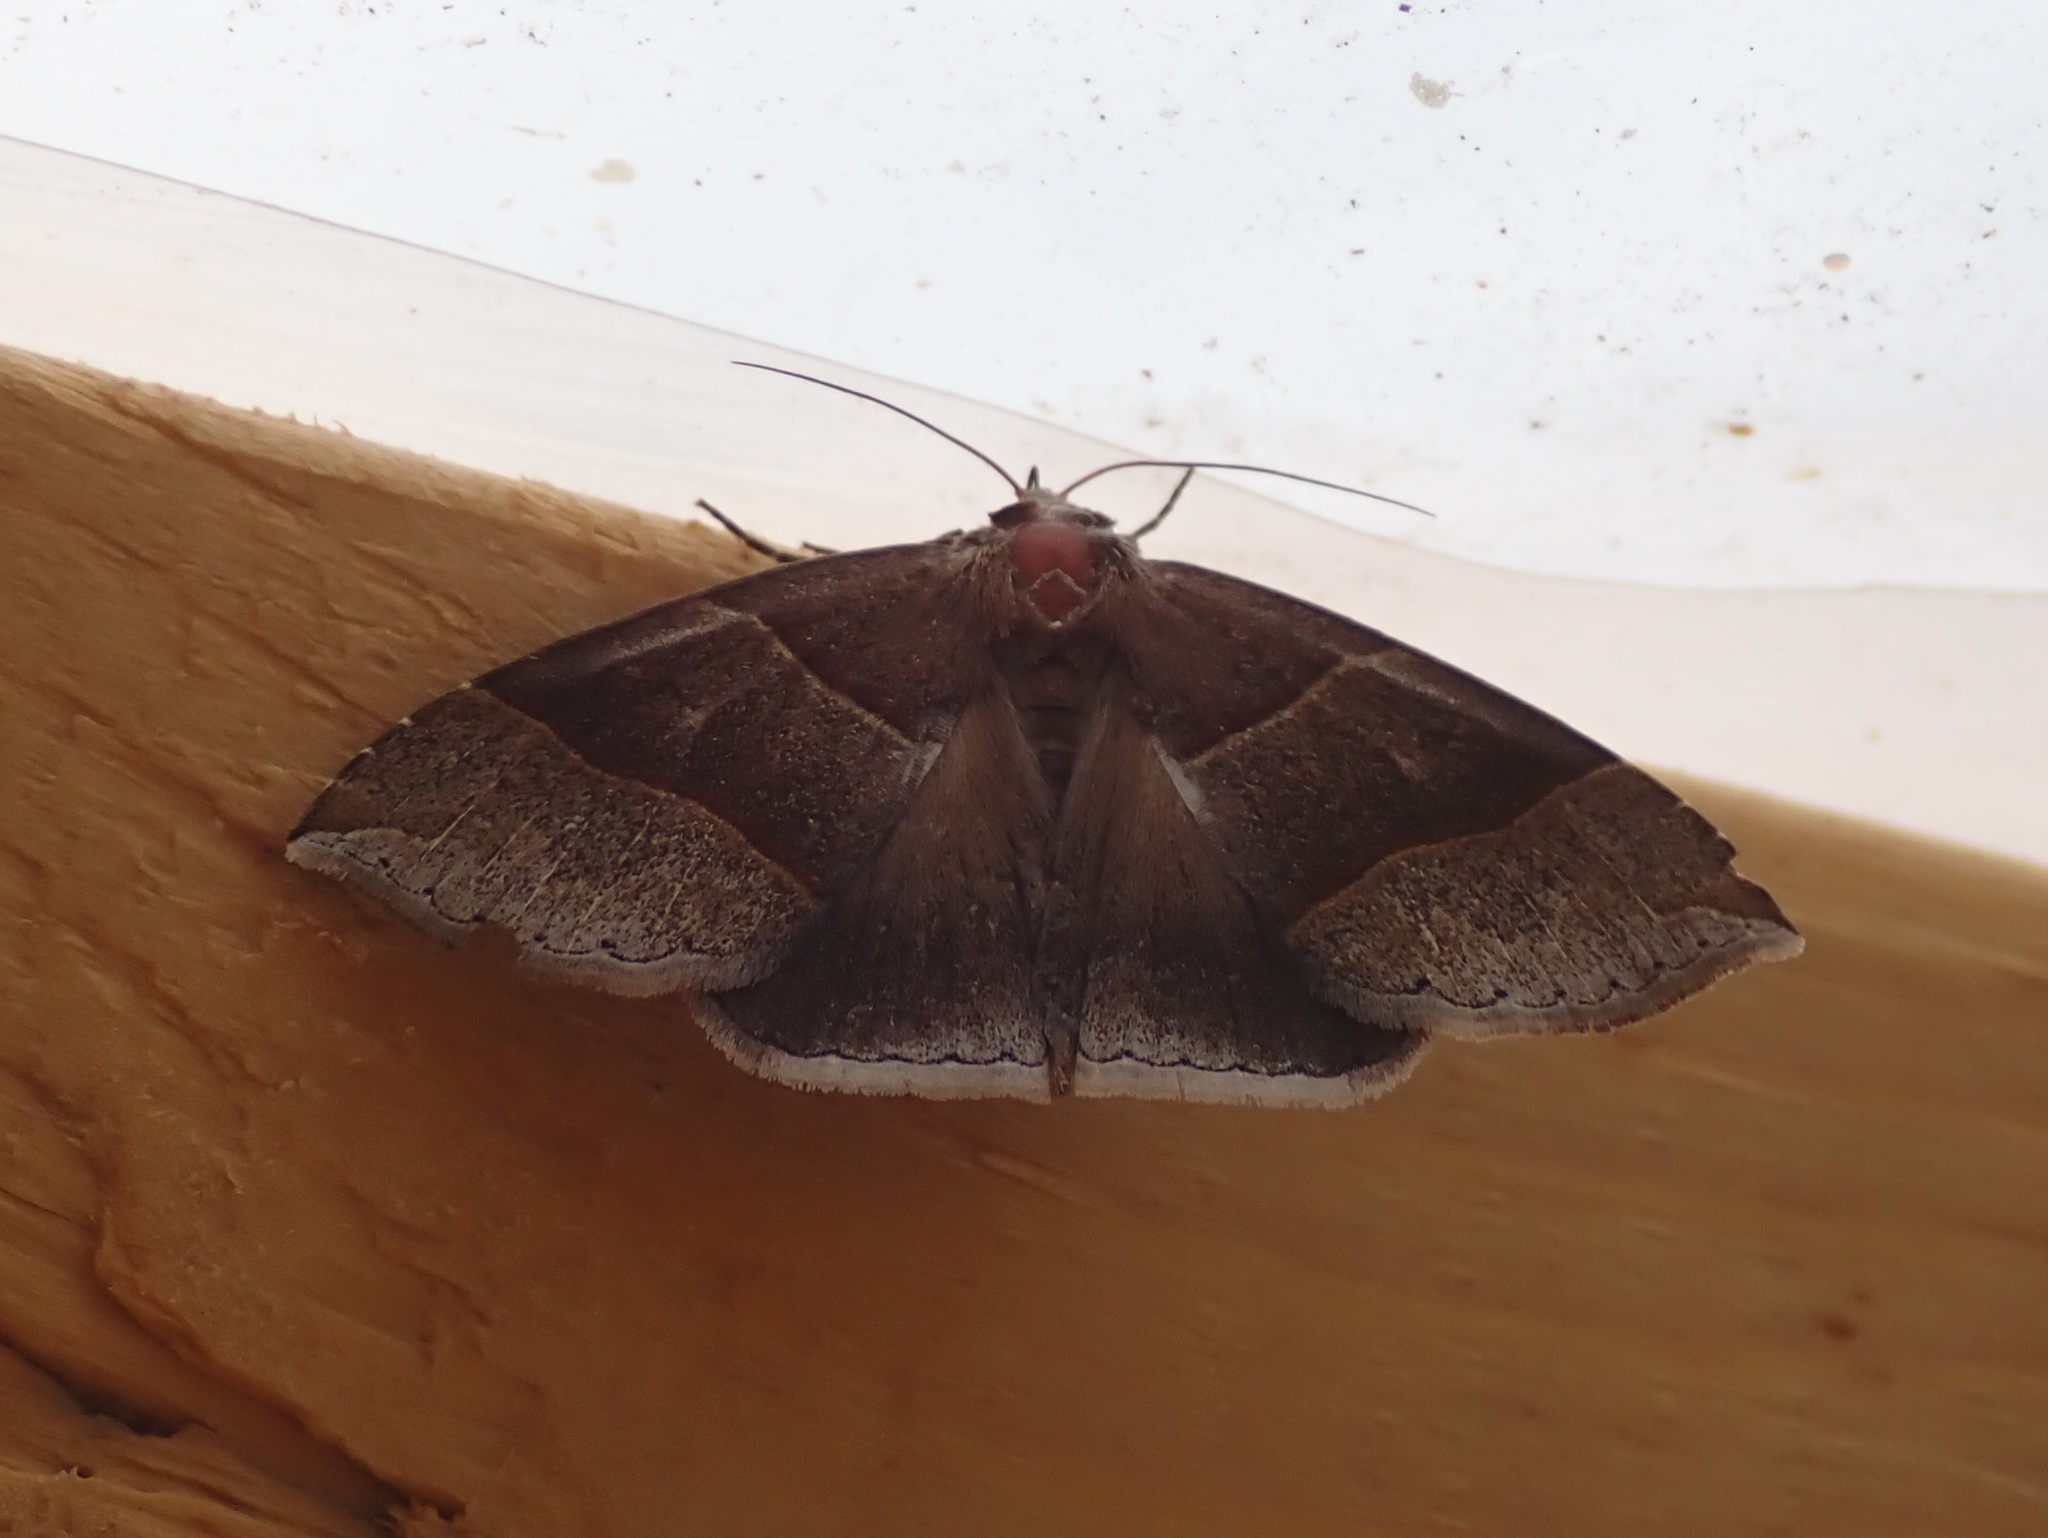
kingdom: Animalia
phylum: Arthropoda
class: Insecta
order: Lepidoptera
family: Erebidae
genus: Parallelia
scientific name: Parallelia bistriaris
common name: Maple looper moth
